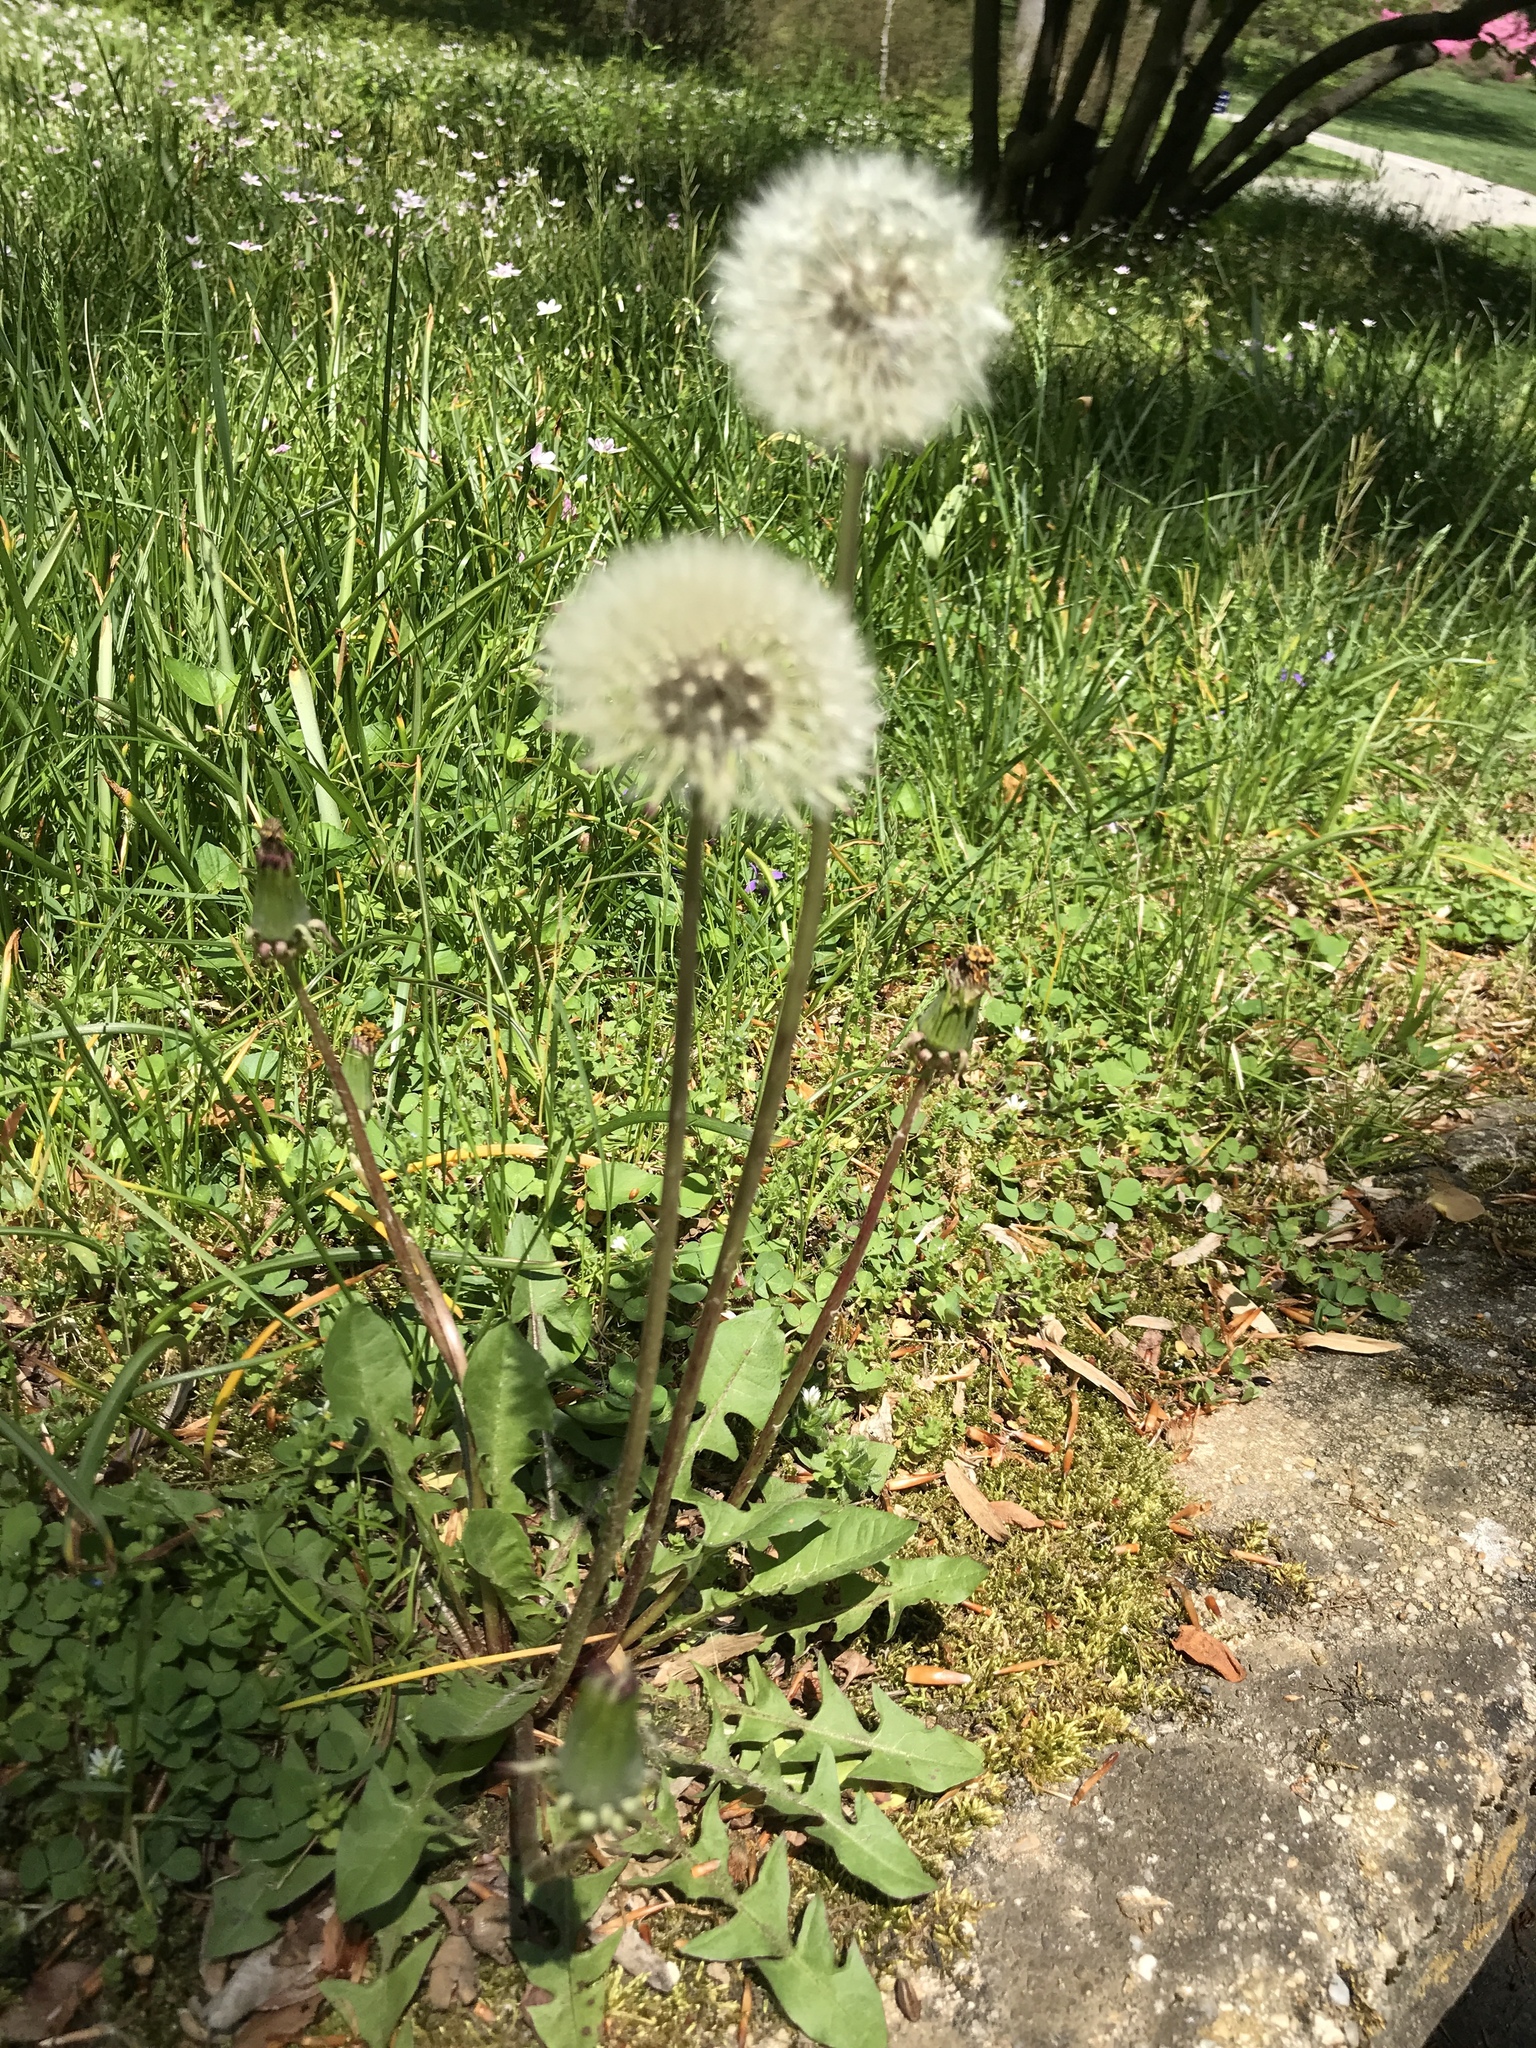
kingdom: Plantae
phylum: Tracheophyta
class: Magnoliopsida
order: Asterales
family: Asteraceae
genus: Taraxacum
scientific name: Taraxacum officinale
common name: Common dandelion
